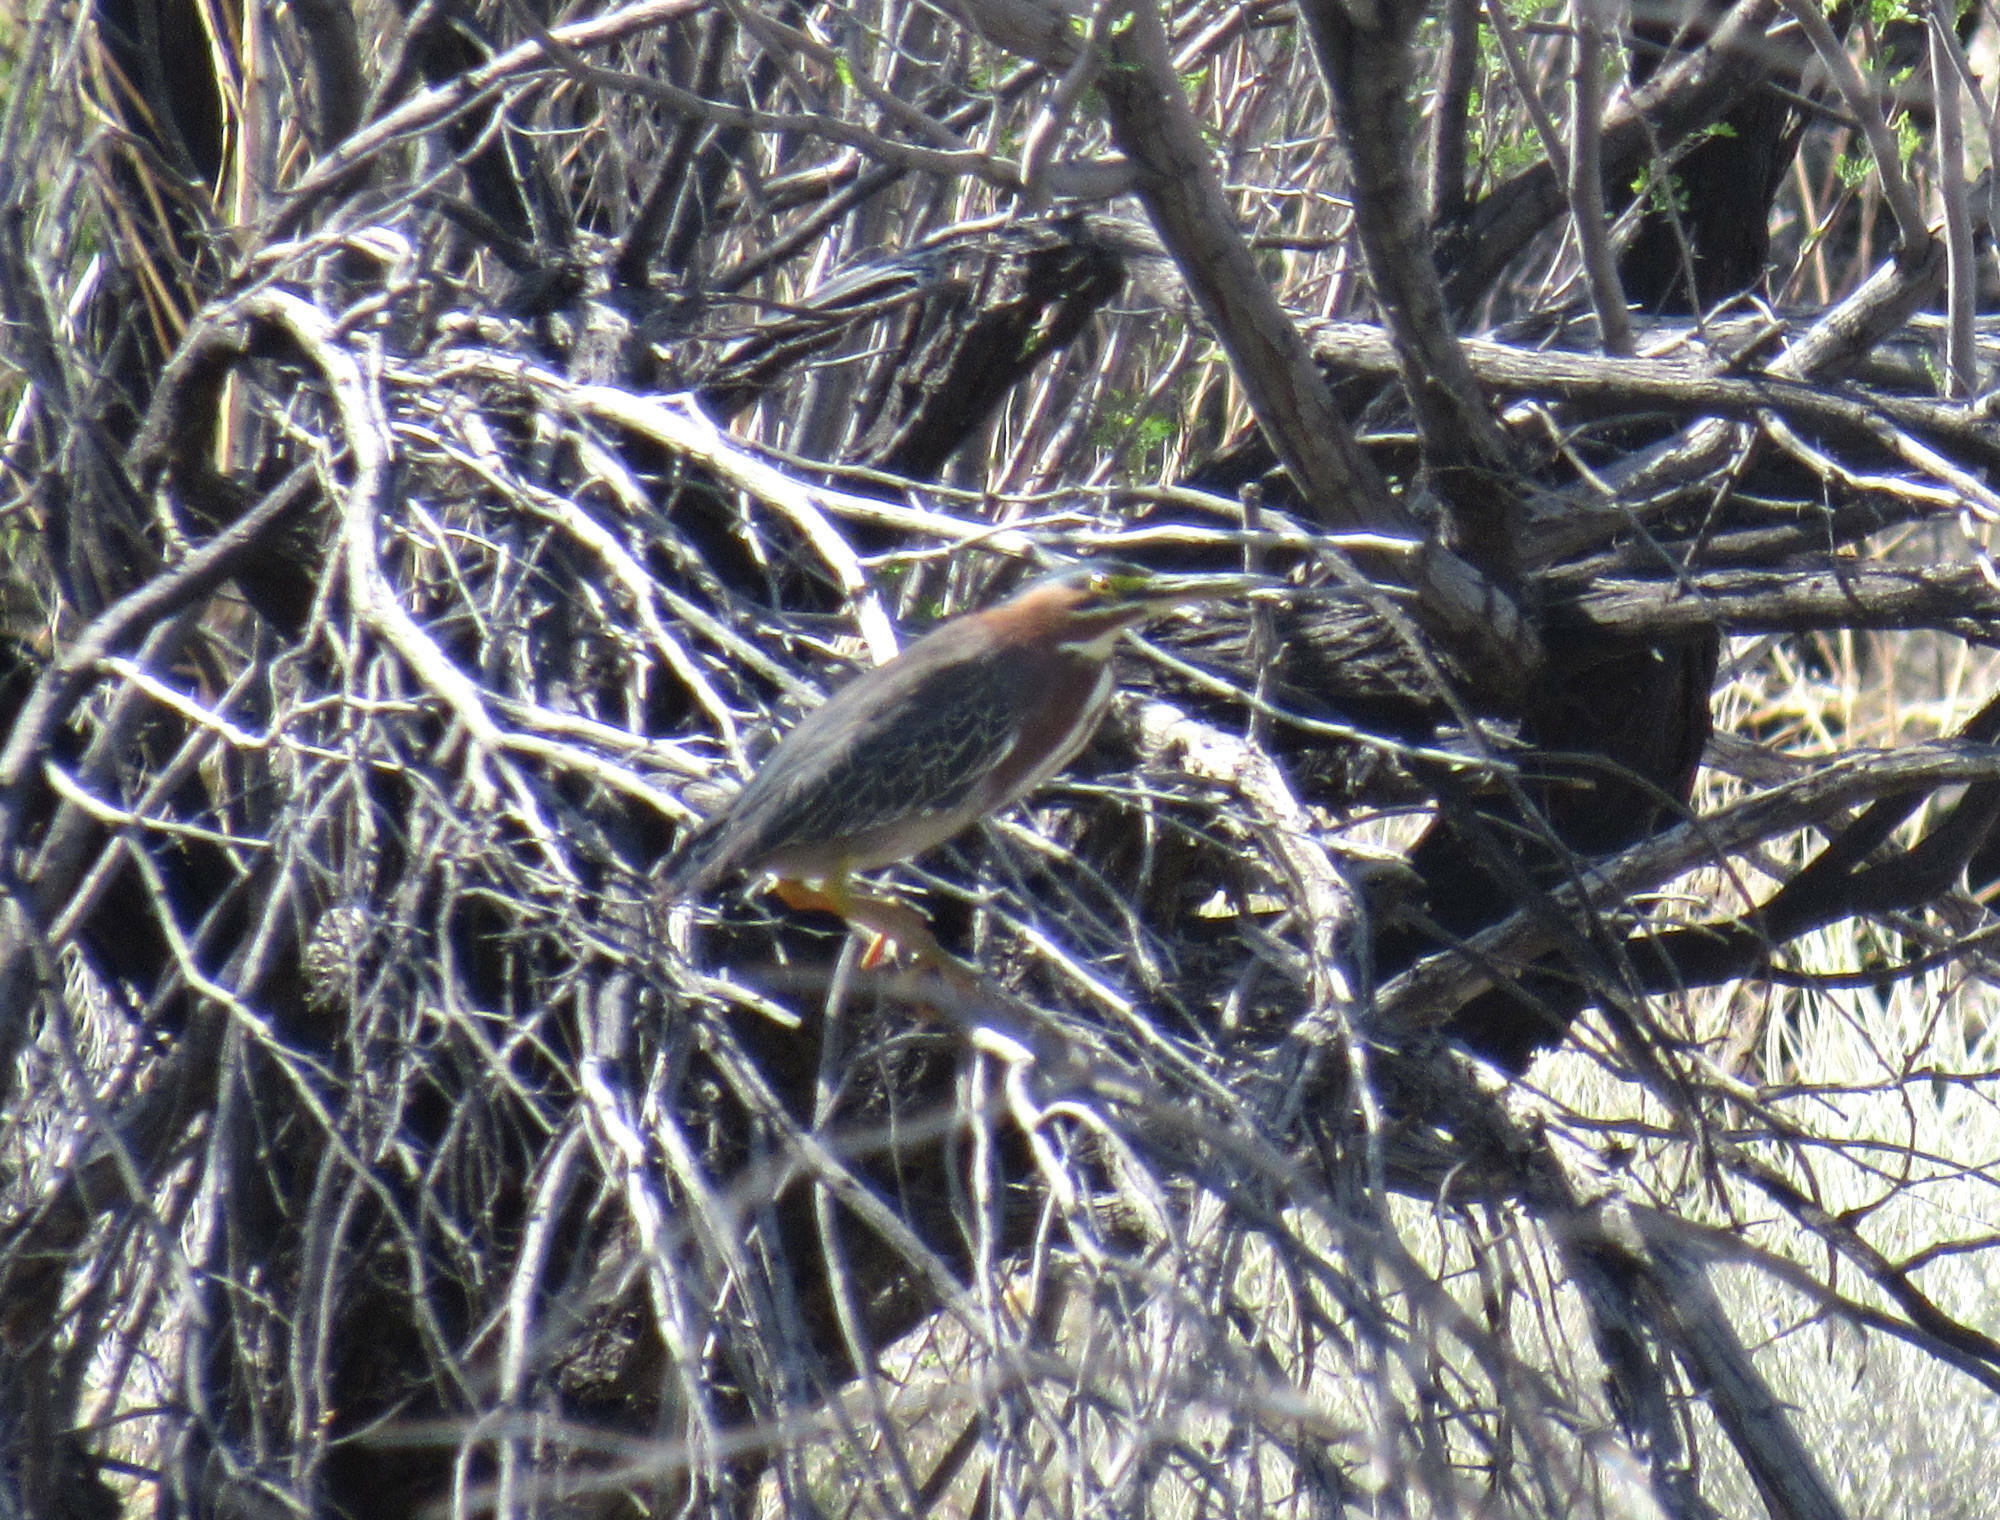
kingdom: Animalia
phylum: Chordata
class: Aves
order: Pelecaniformes
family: Ardeidae
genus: Butorides
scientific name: Butorides virescens
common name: Green heron
